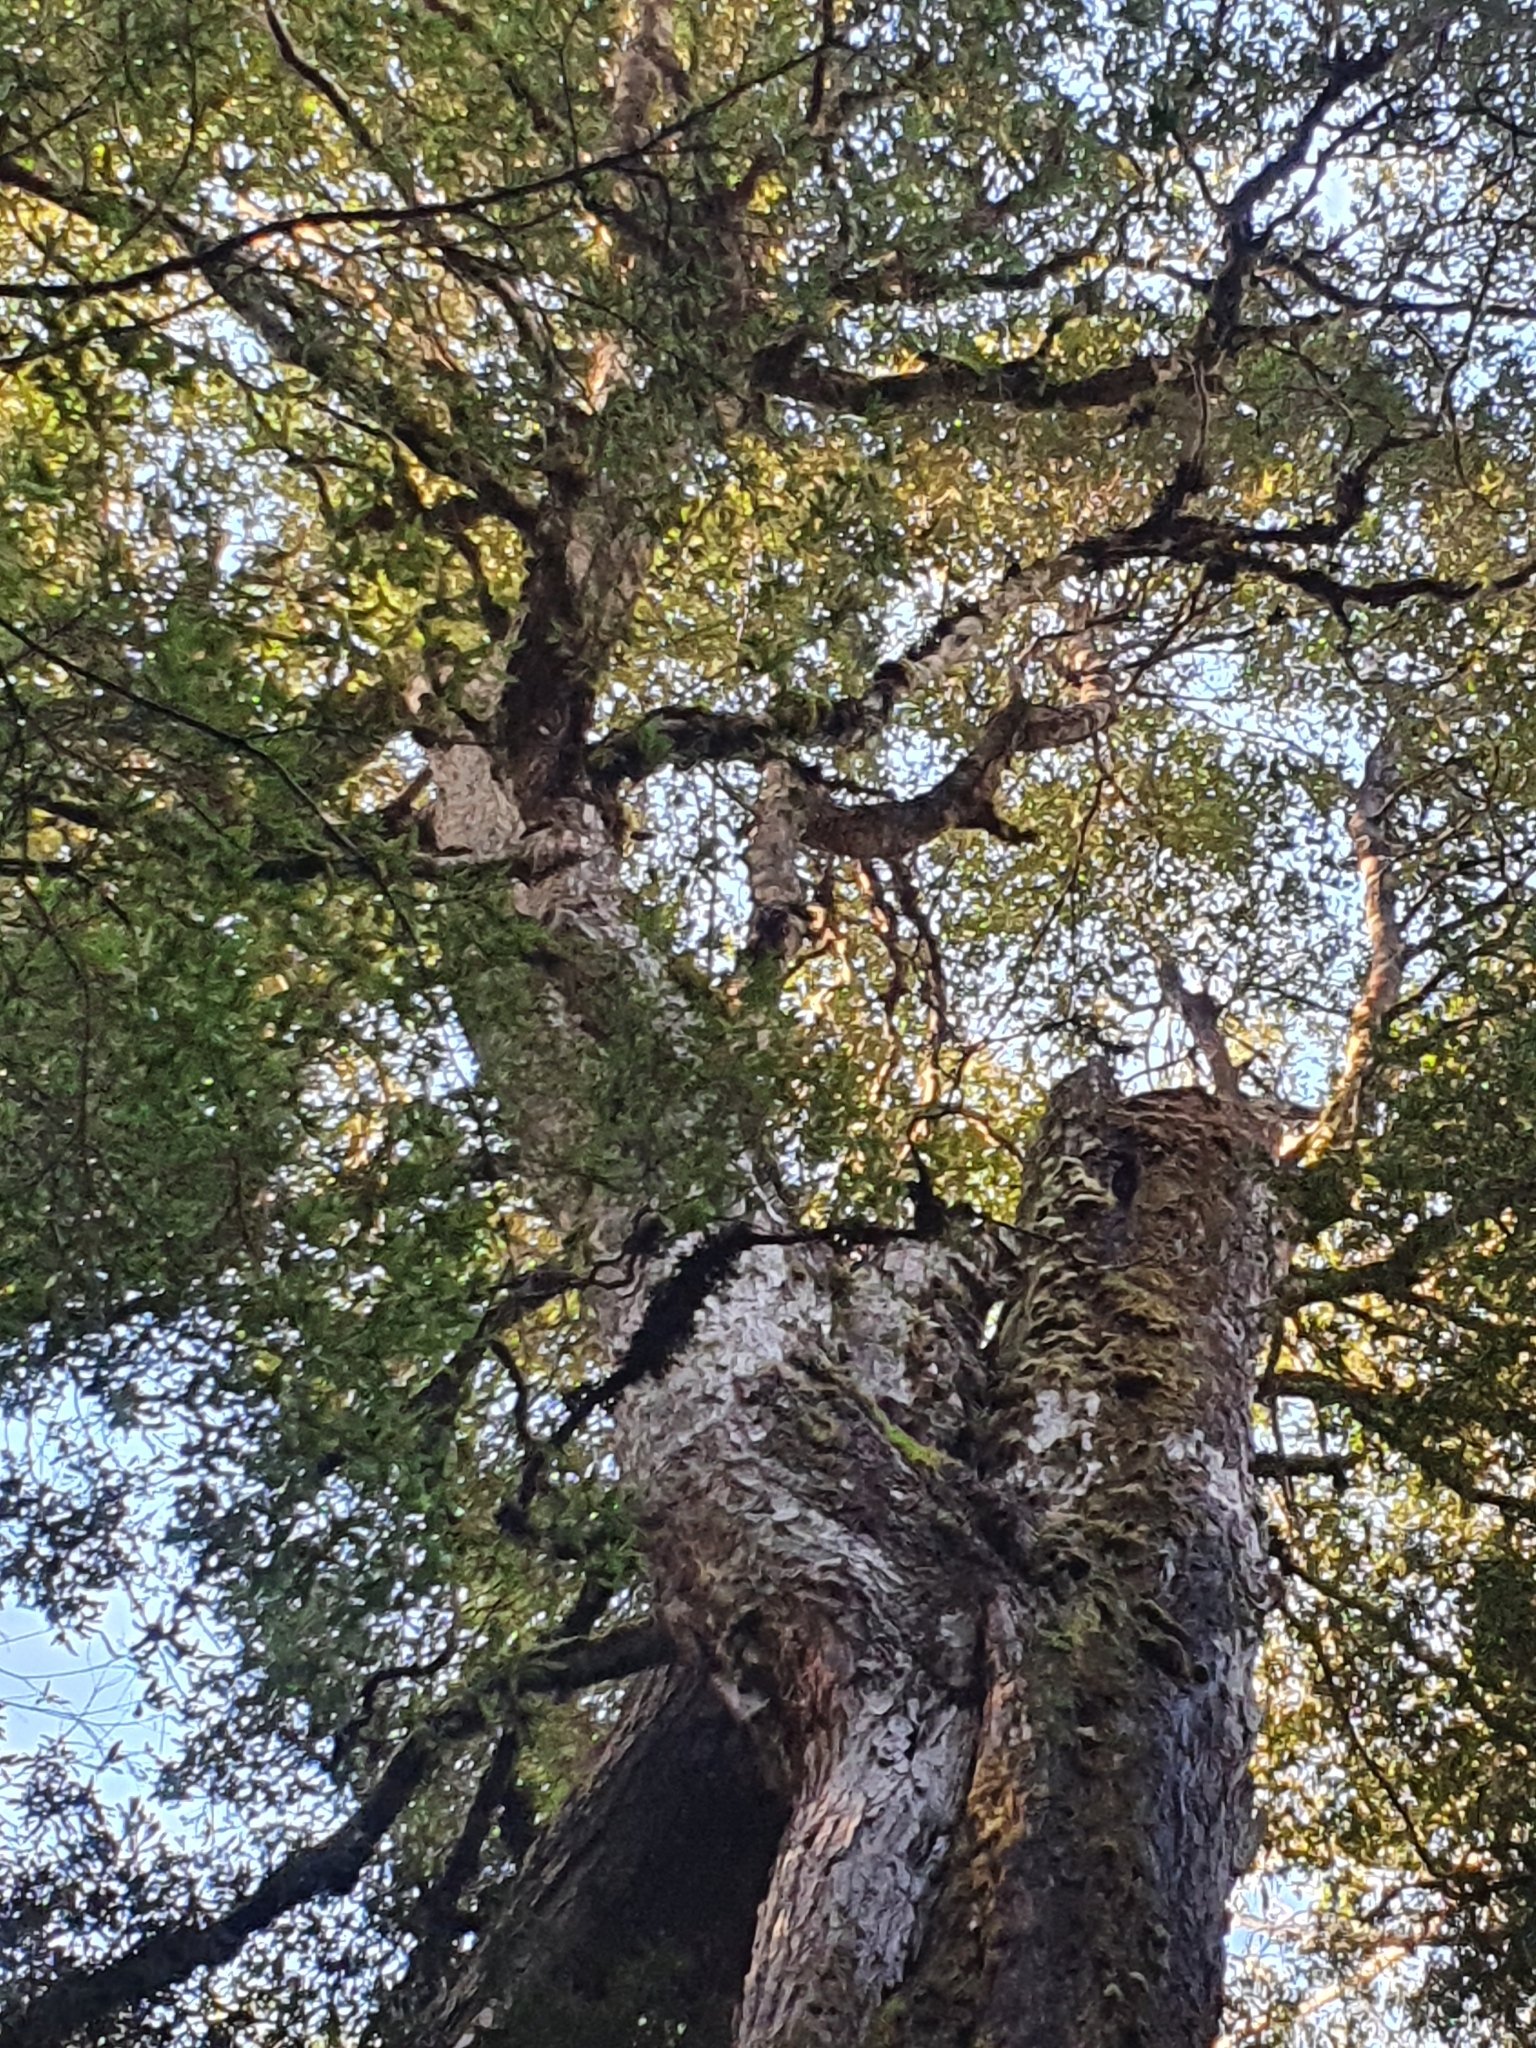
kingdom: Plantae
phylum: Tracheophyta
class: Magnoliopsida
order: Fagales
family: Nothofagaceae
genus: Nothofagus
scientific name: Nothofagus cunninghamii
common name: Myrtle beech
